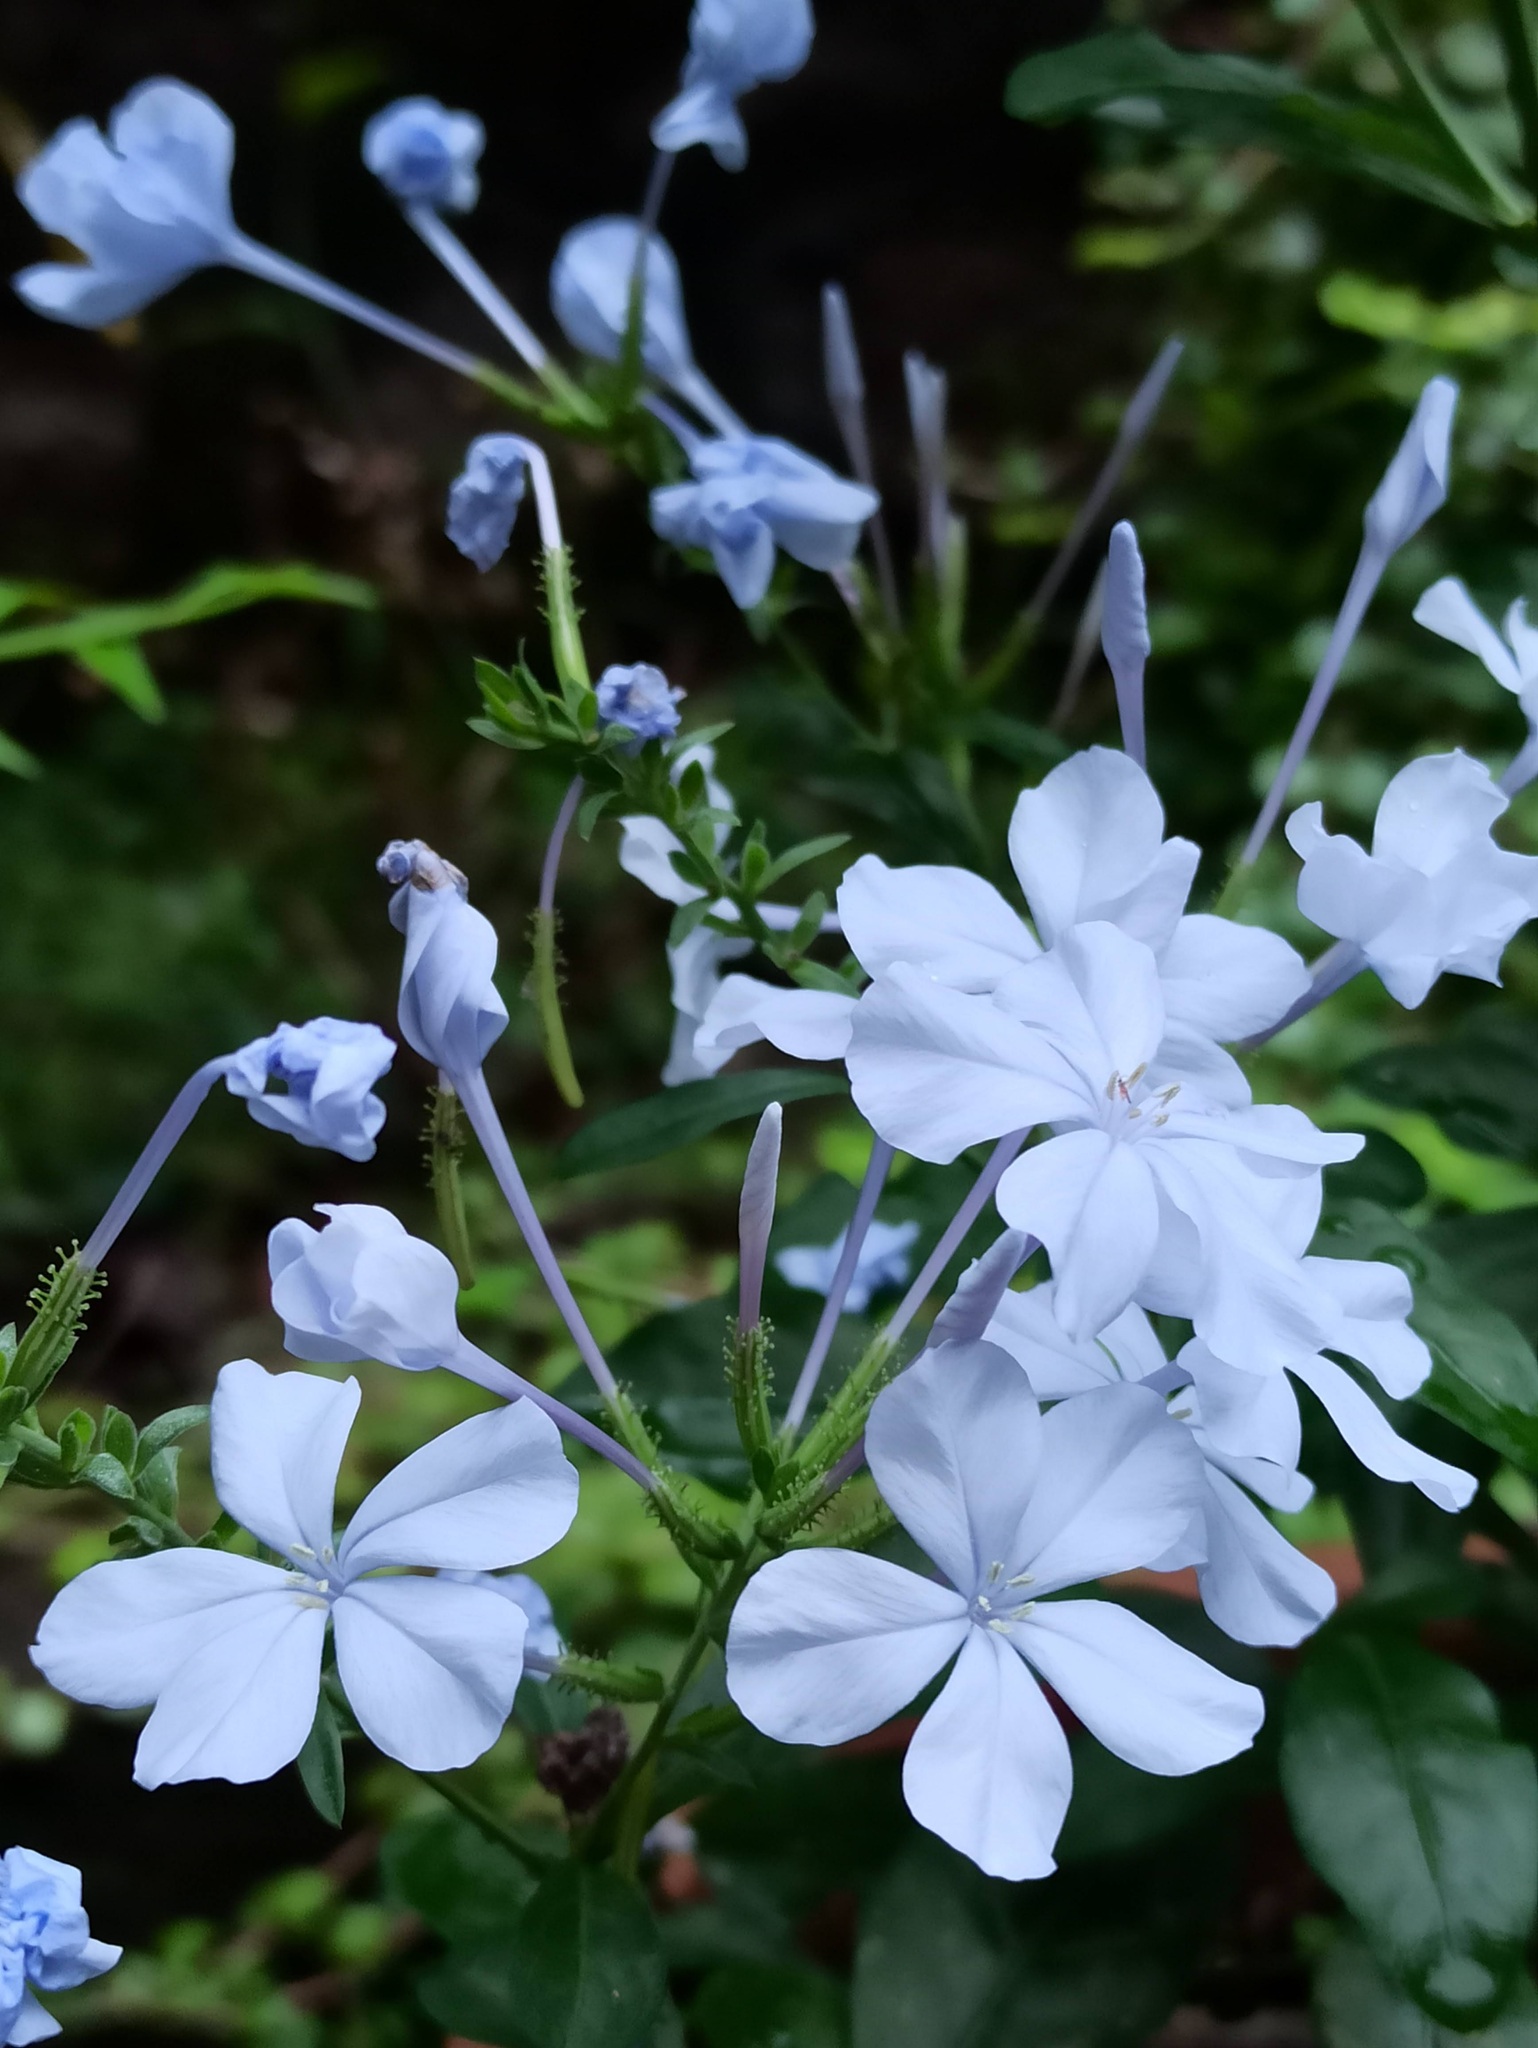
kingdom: Plantae
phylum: Tracheophyta
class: Magnoliopsida
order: Caryophyllales
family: Plumbaginaceae
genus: Plumbago
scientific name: Plumbago auriculata
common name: Cape leadwort
